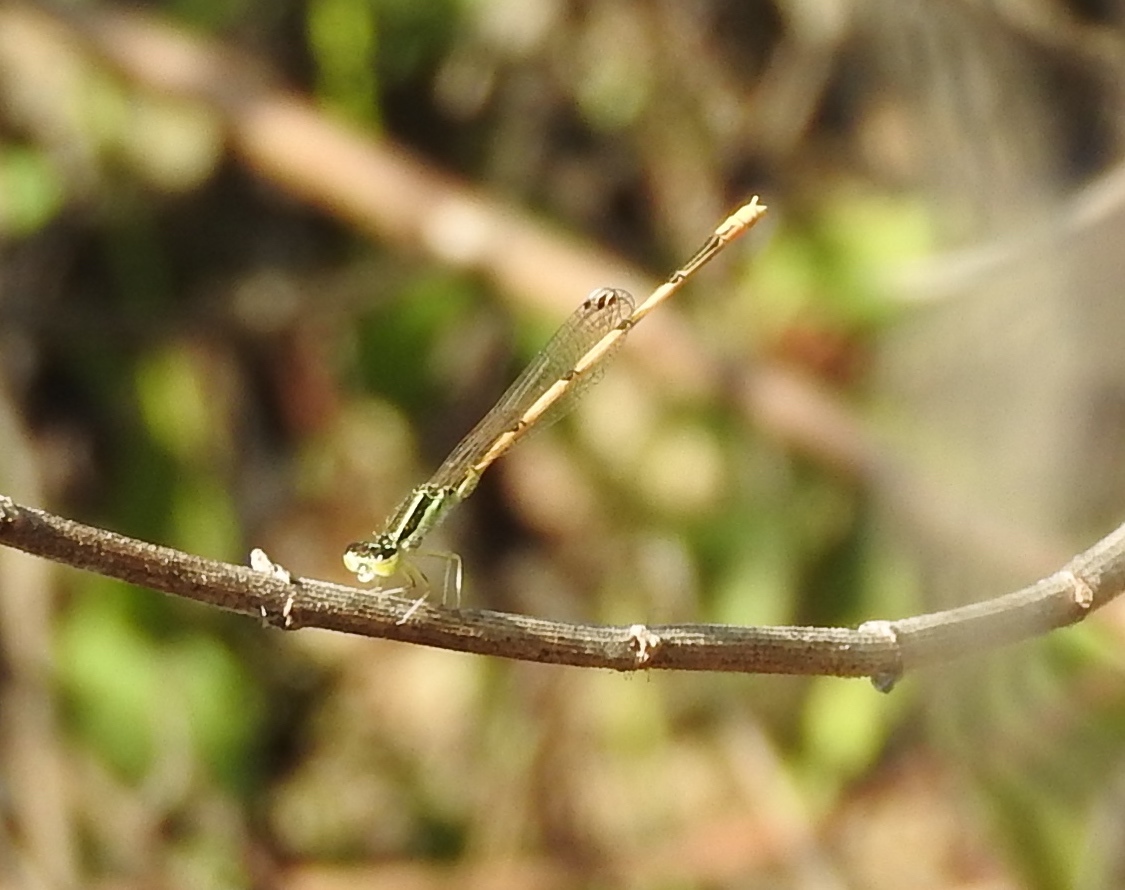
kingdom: Animalia
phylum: Arthropoda
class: Insecta
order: Odonata
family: Coenagrionidae
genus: Ischnura
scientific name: Ischnura hastata
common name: Citrine forktail
